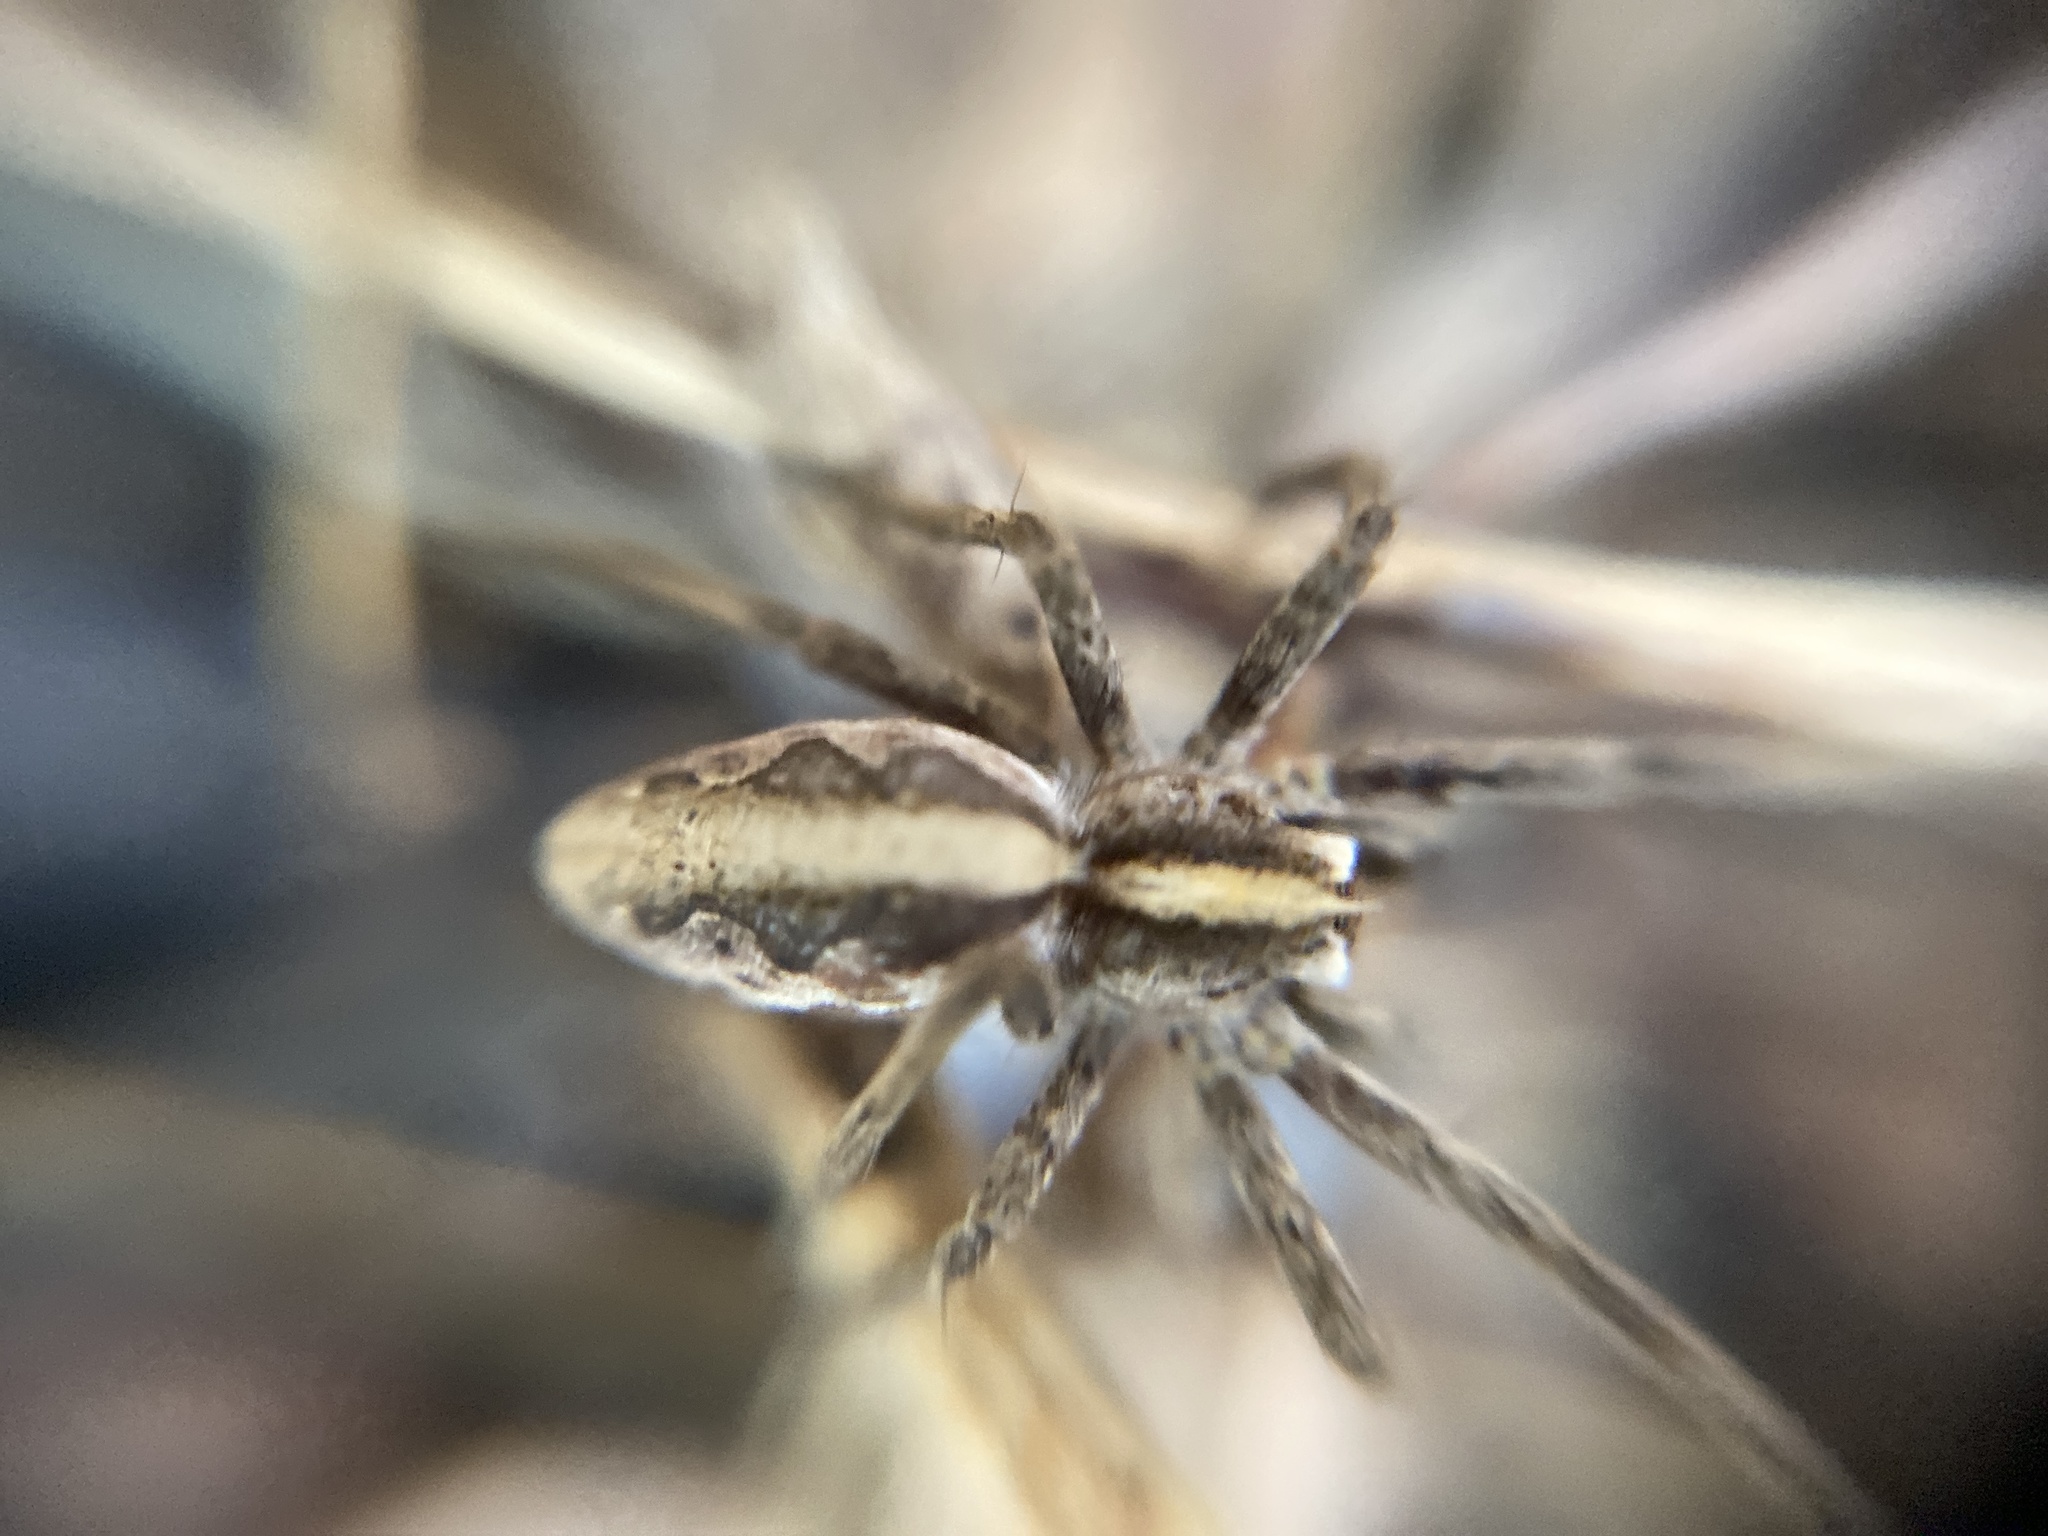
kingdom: Animalia
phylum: Arthropoda
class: Arachnida
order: Araneae
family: Pisauridae
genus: Pisaura
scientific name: Pisaura mirabilis
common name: Tent spider
